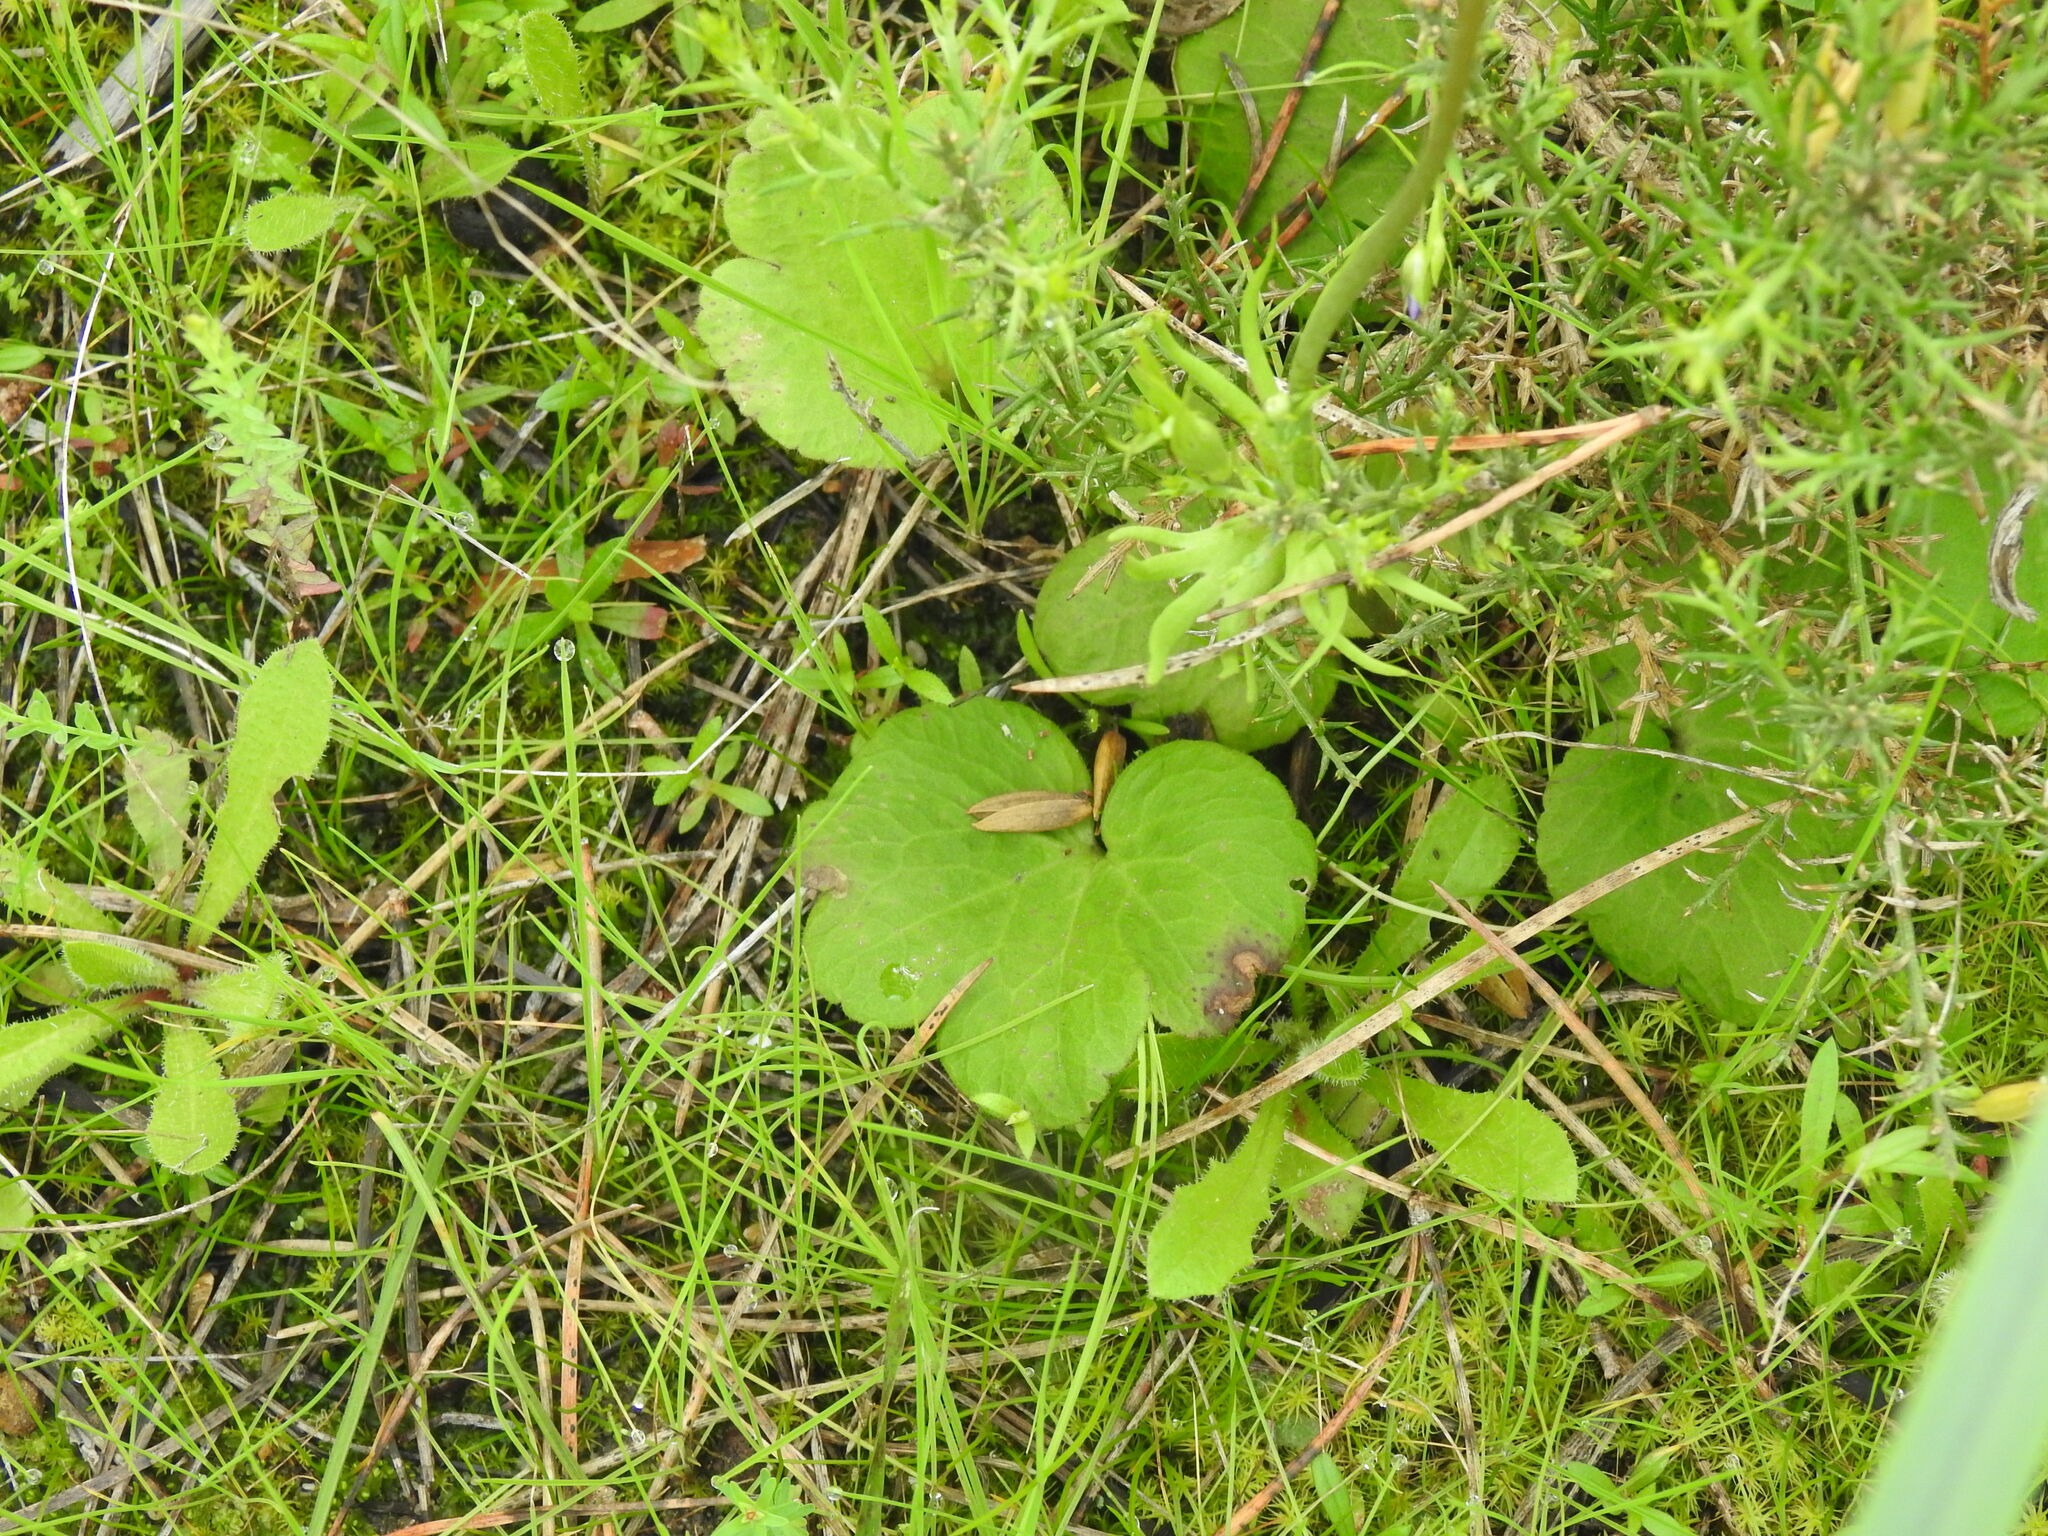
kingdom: Plantae
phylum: Tracheophyta
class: Magnoliopsida
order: Ranunculales
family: Ranunculaceae
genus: Anemone
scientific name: Anemone palmata
